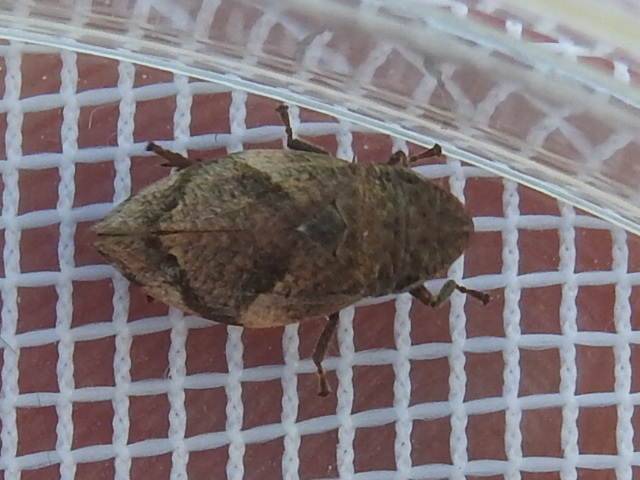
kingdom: Animalia
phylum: Arthropoda
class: Insecta
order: Hemiptera
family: Aphrophoridae
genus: Lepyronia
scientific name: Lepyronia quadrangularis
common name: Diamond-backed spittlebug
